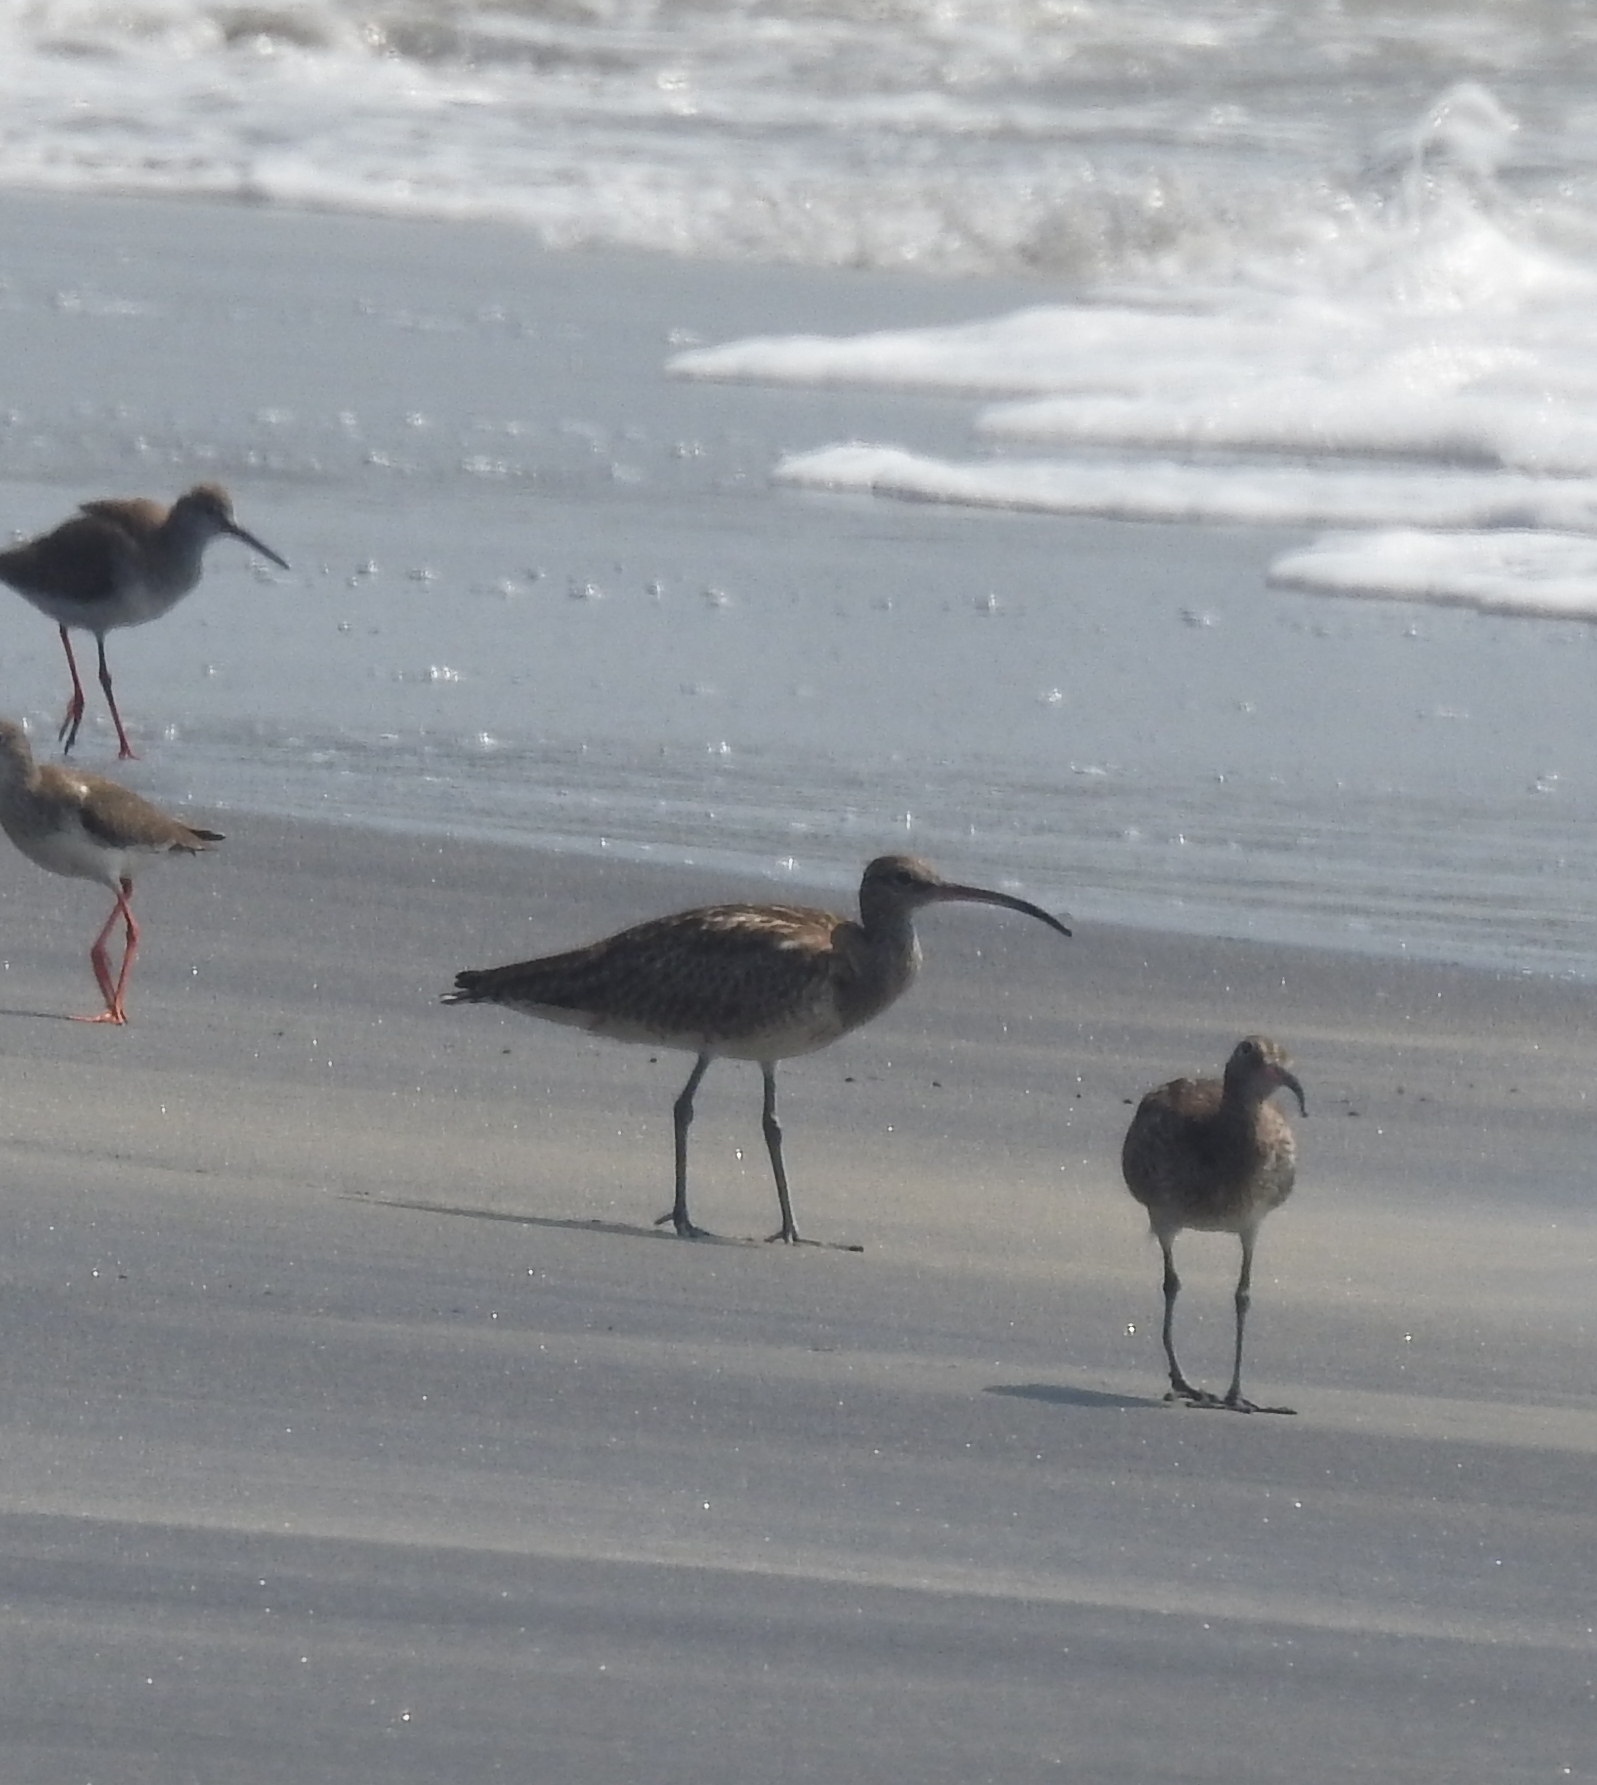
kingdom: Animalia
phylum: Chordata
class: Aves
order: Charadriiformes
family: Scolopacidae
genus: Numenius
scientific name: Numenius phaeopus
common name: Whimbrel
